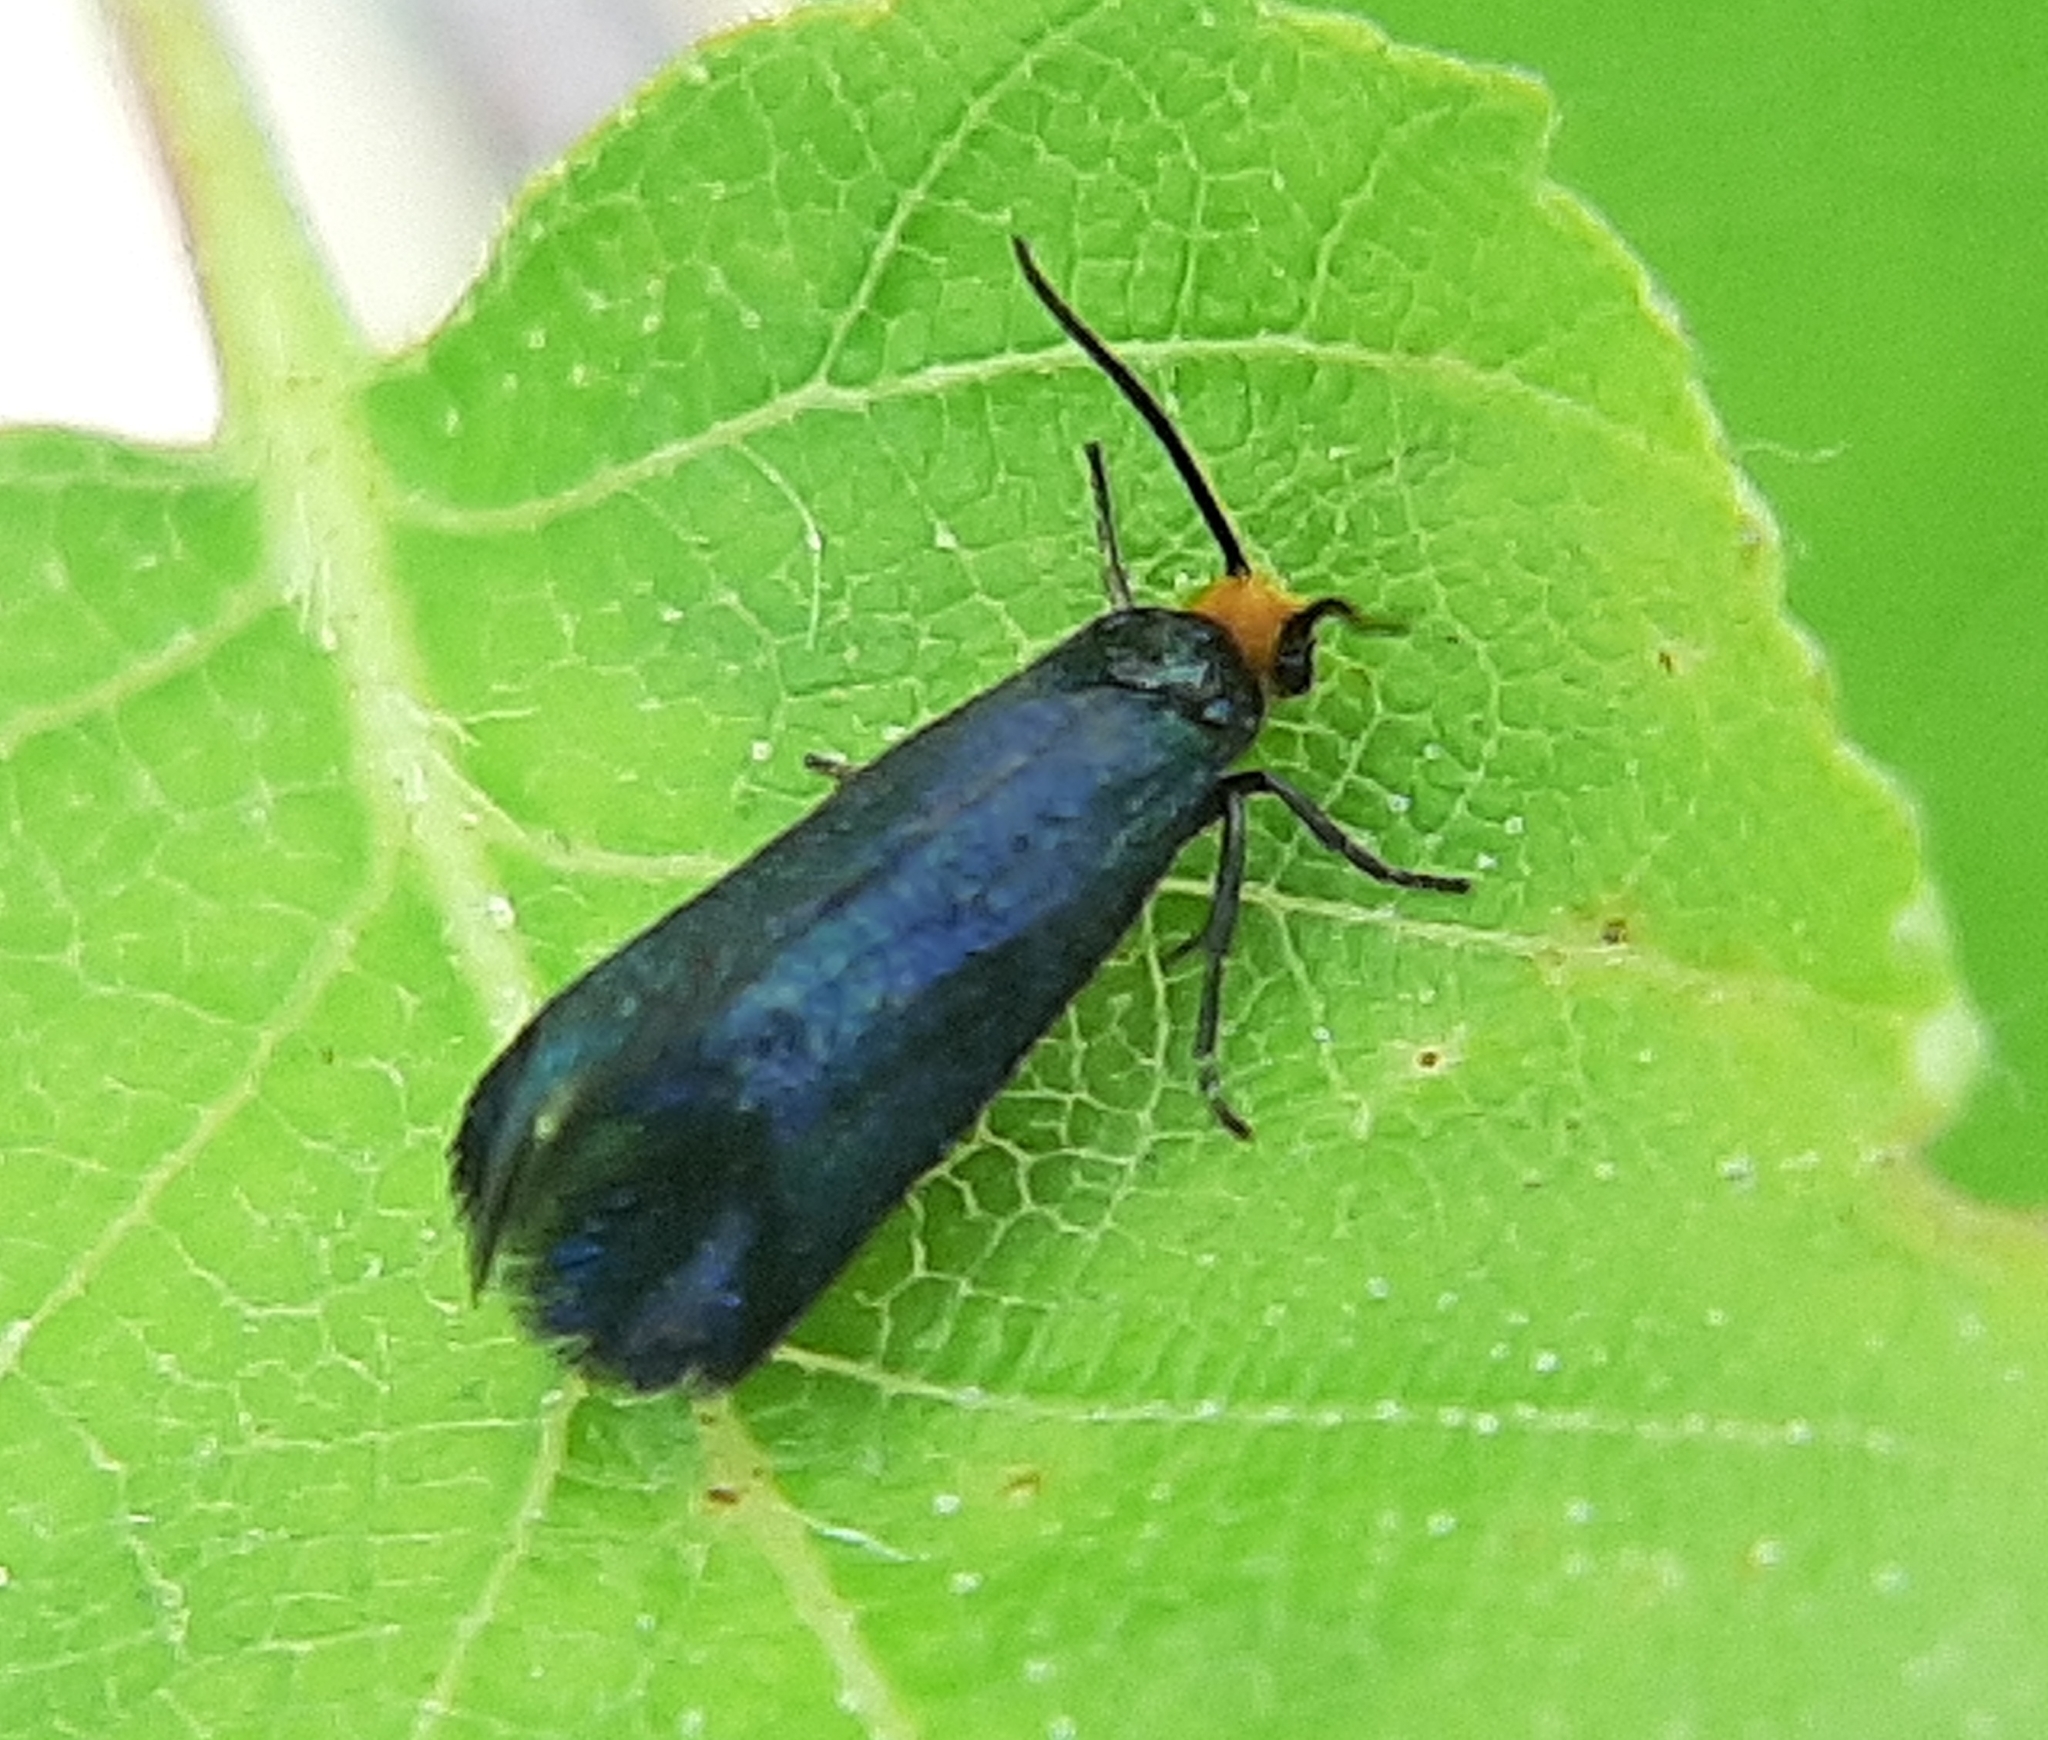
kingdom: Animalia
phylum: Arthropoda
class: Insecta
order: Lepidoptera
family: Incurvariidae
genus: Paraclemensia
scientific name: Paraclemensia acerifoliella
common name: Maple leafcutter
